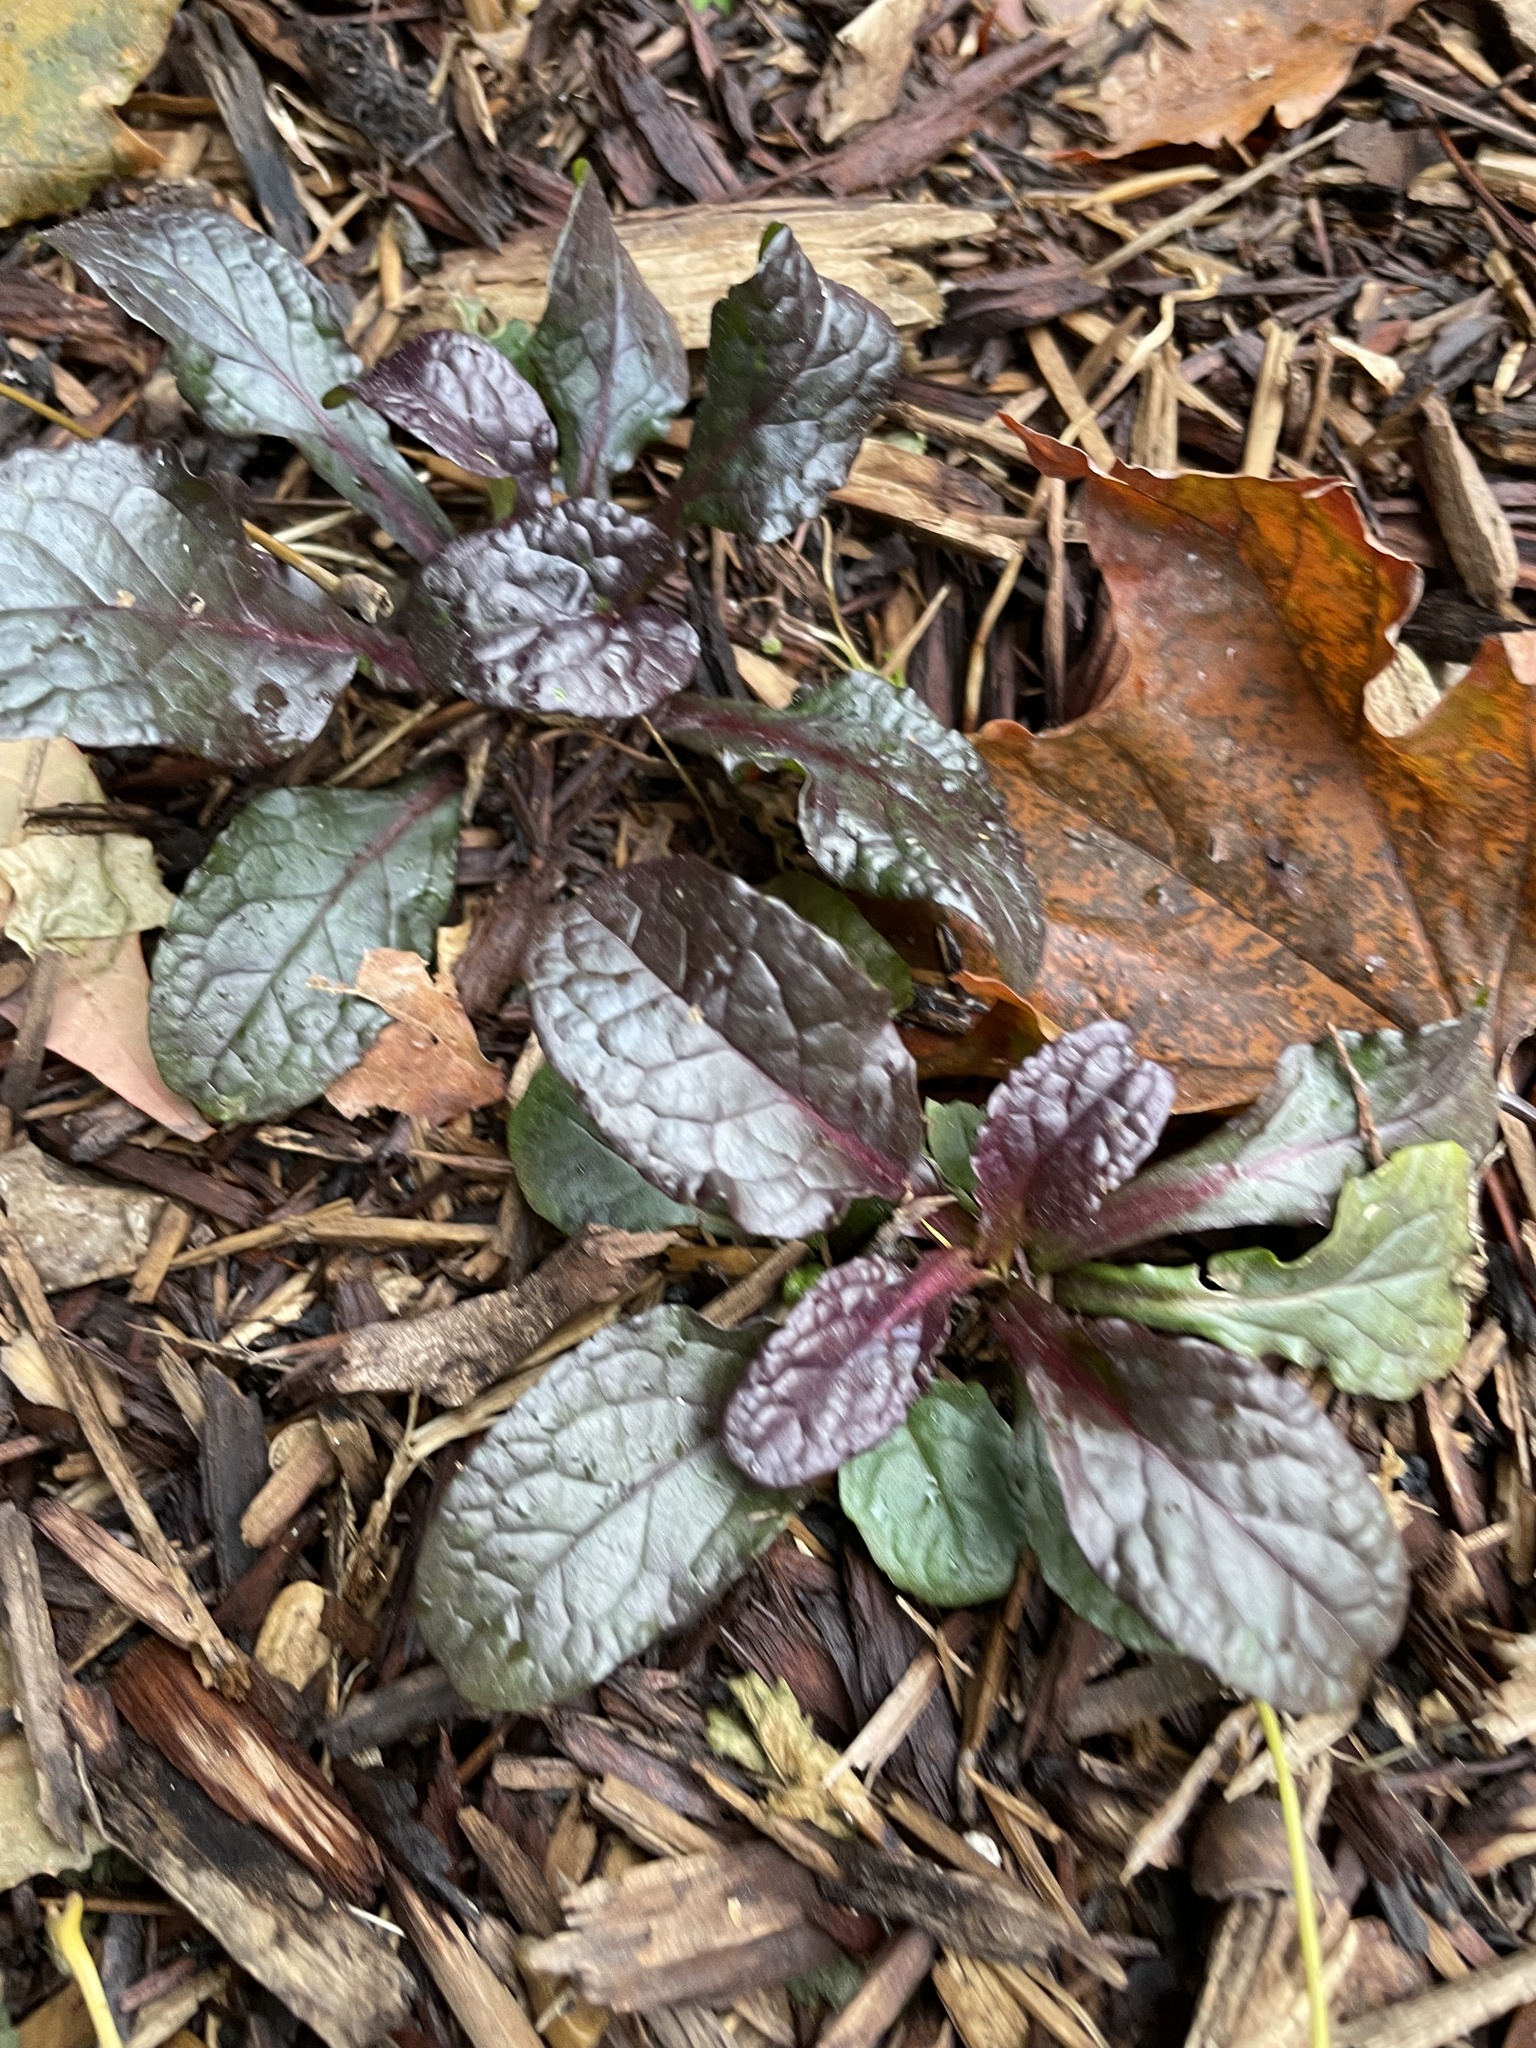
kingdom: Plantae
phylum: Tracheophyta
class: Magnoliopsida
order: Lamiales
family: Lamiaceae
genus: Ajuga
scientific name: Ajuga reptans
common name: Bugle
